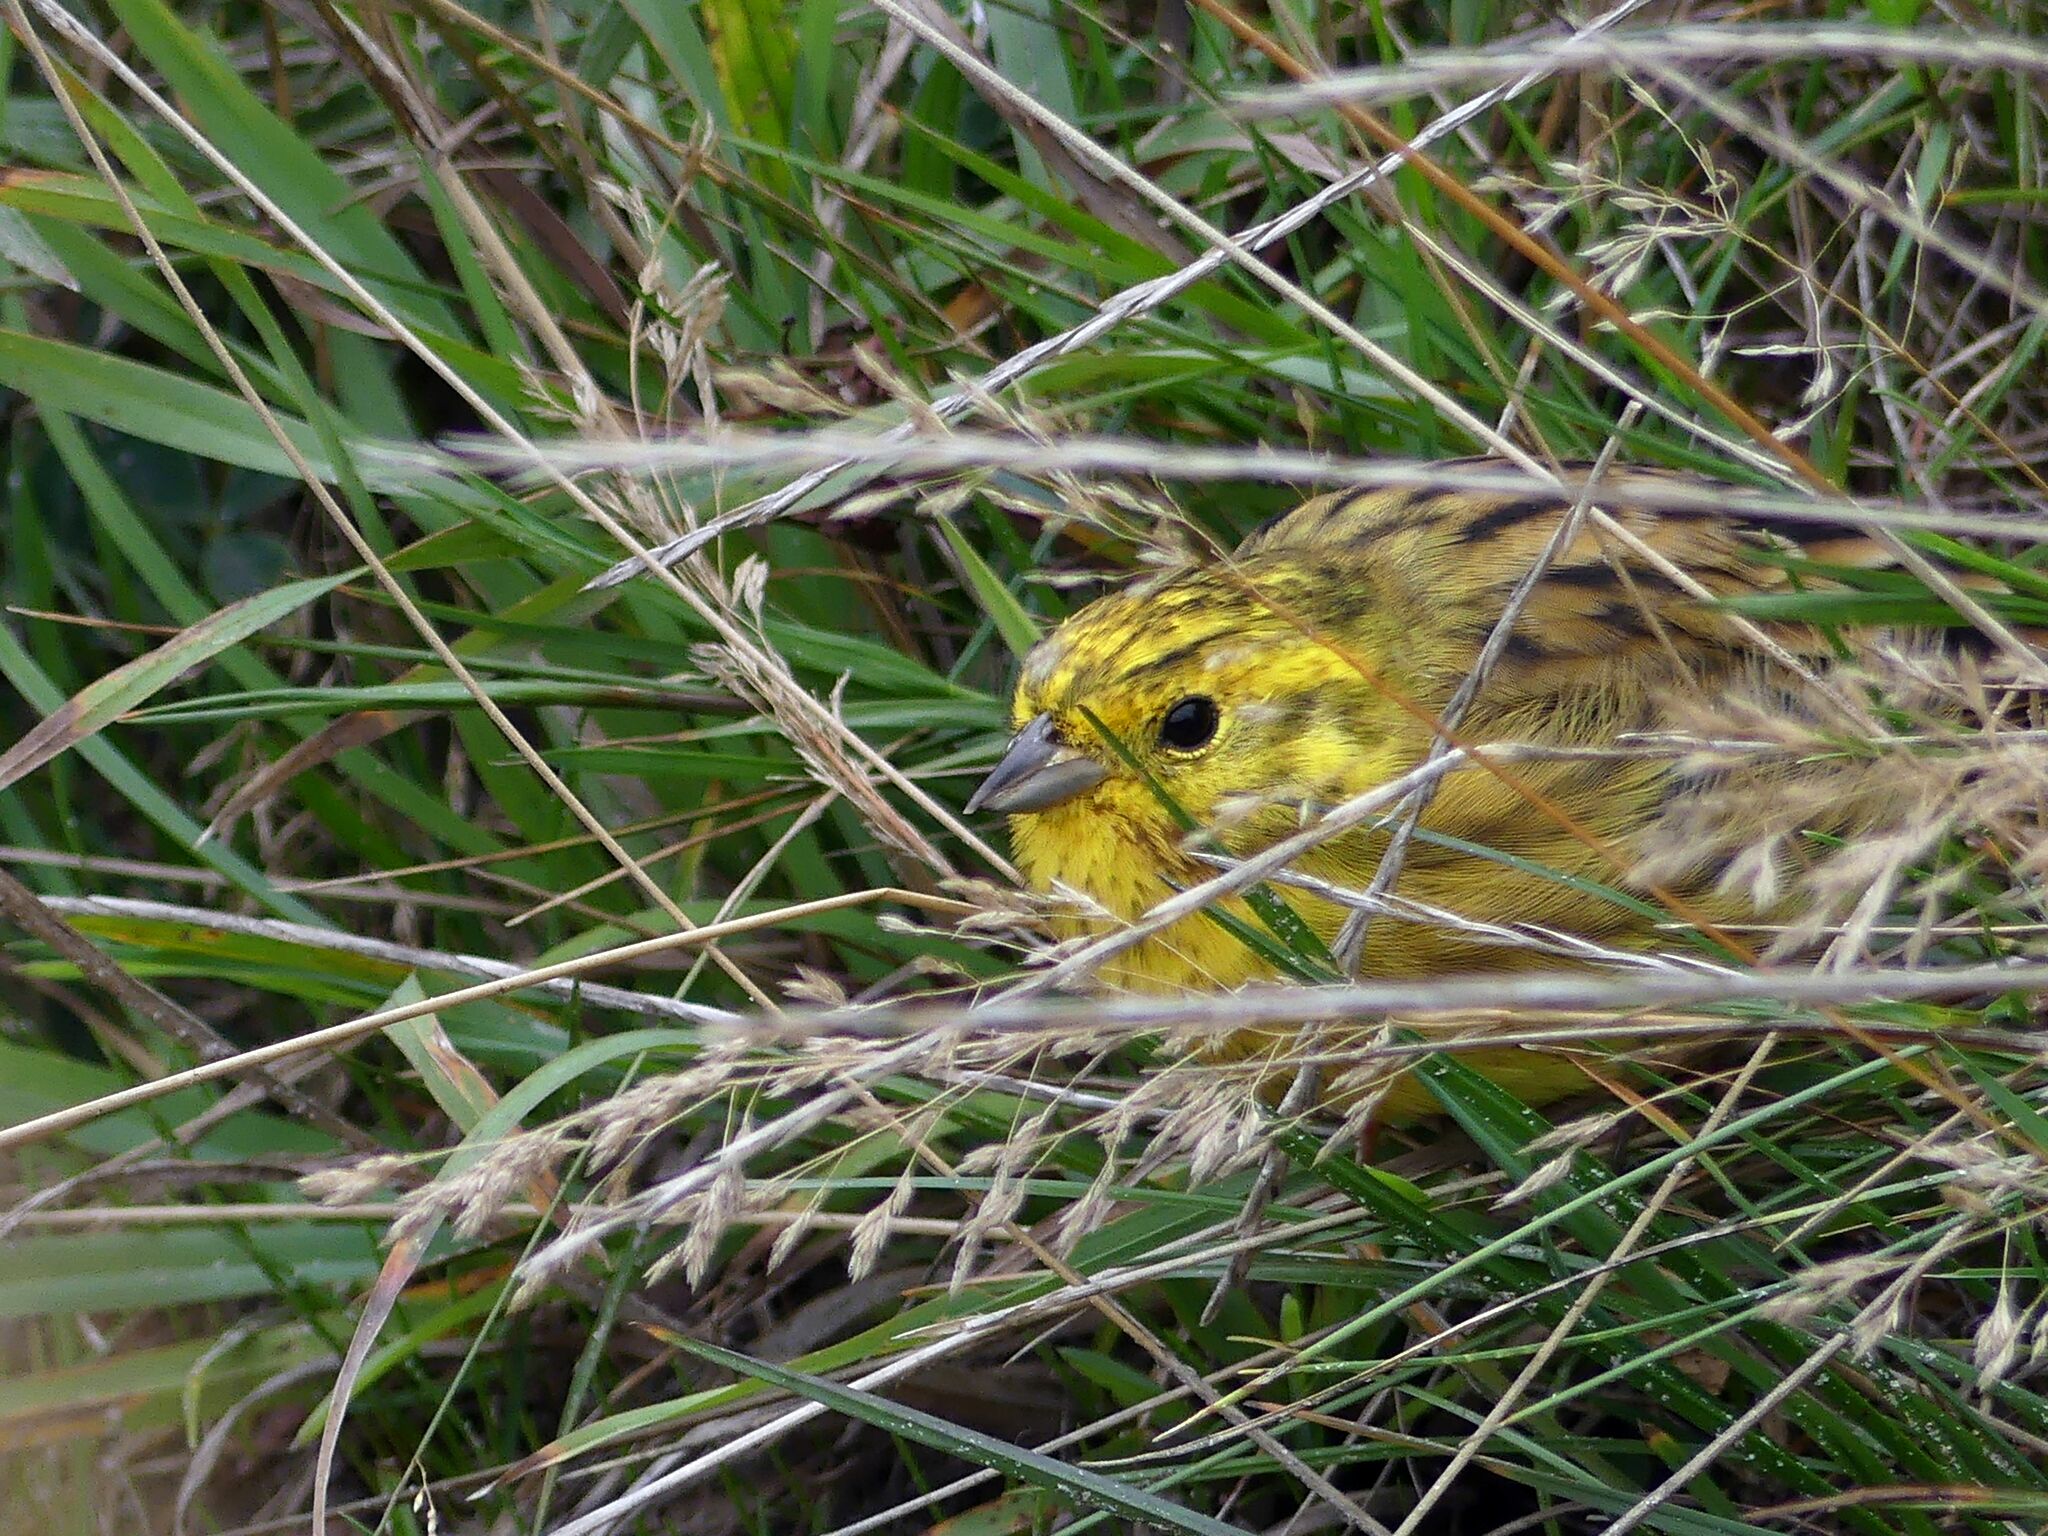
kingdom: Animalia
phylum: Chordata
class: Aves
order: Passeriformes
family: Emberizidae
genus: Emberiza
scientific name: Emberiza citrinella
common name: Yellowhammer
